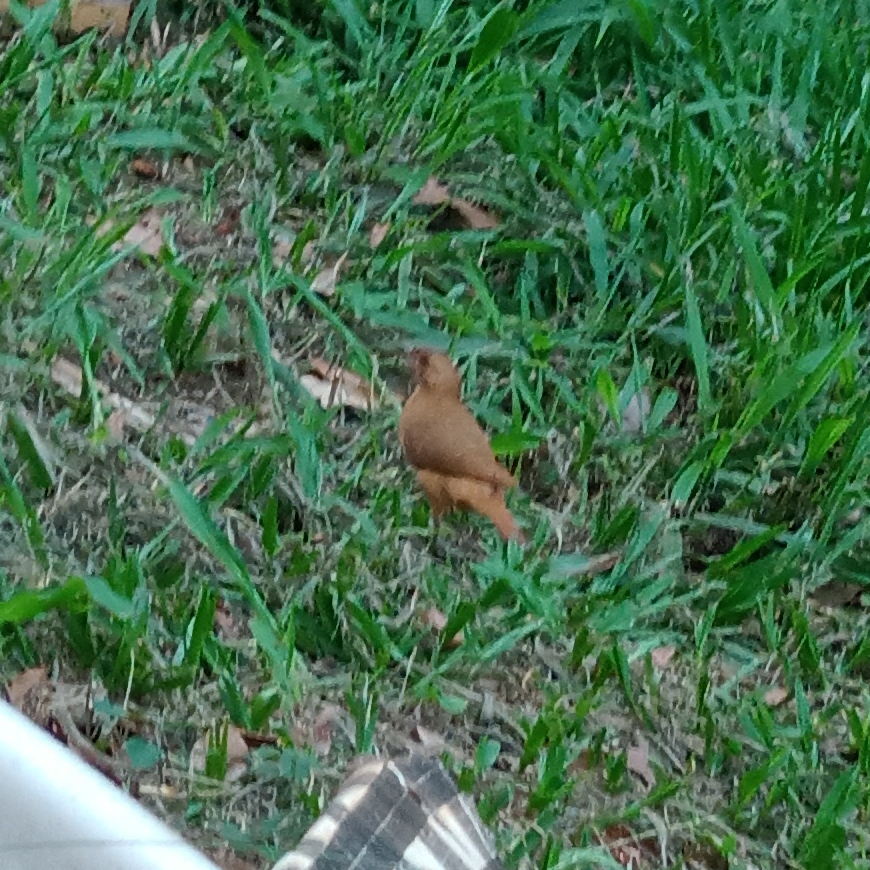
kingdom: Animalia
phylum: Chordata
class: Aves
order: Passeriformes
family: Furnariidae
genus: Furnarius
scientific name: Furnarius rufus
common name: Rufous hornero
